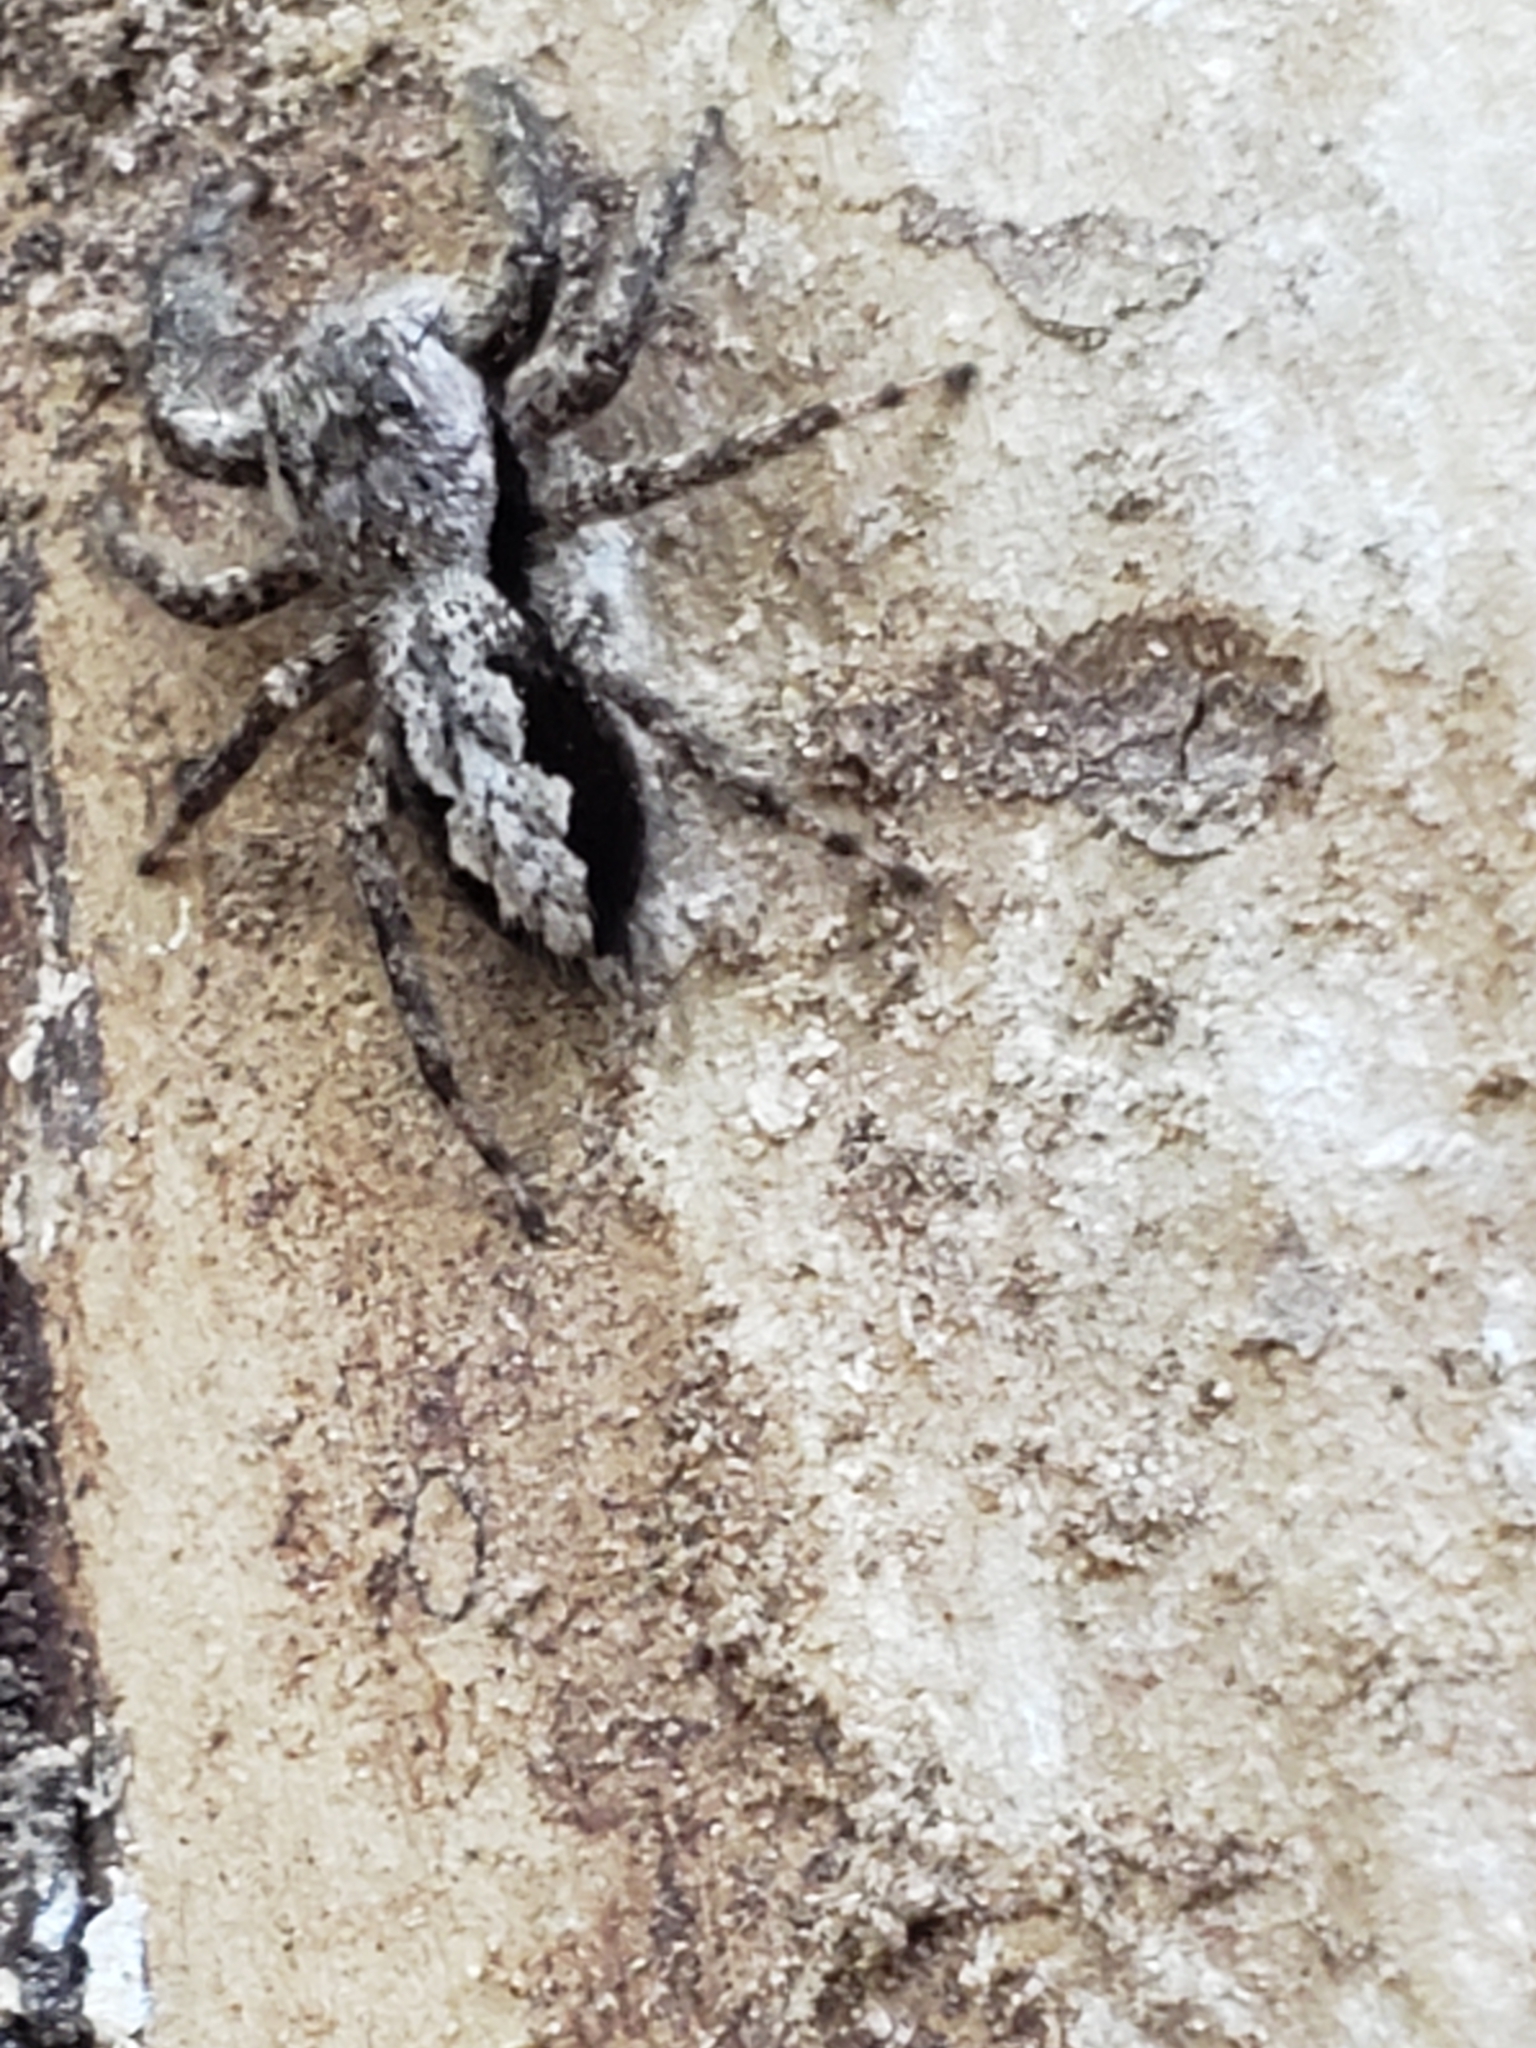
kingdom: Animalia
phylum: Arthropoda
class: Arachnida
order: Araneae
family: Salticidae
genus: Platycryptus
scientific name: Platycryptus undatus
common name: Tan jumping spider
